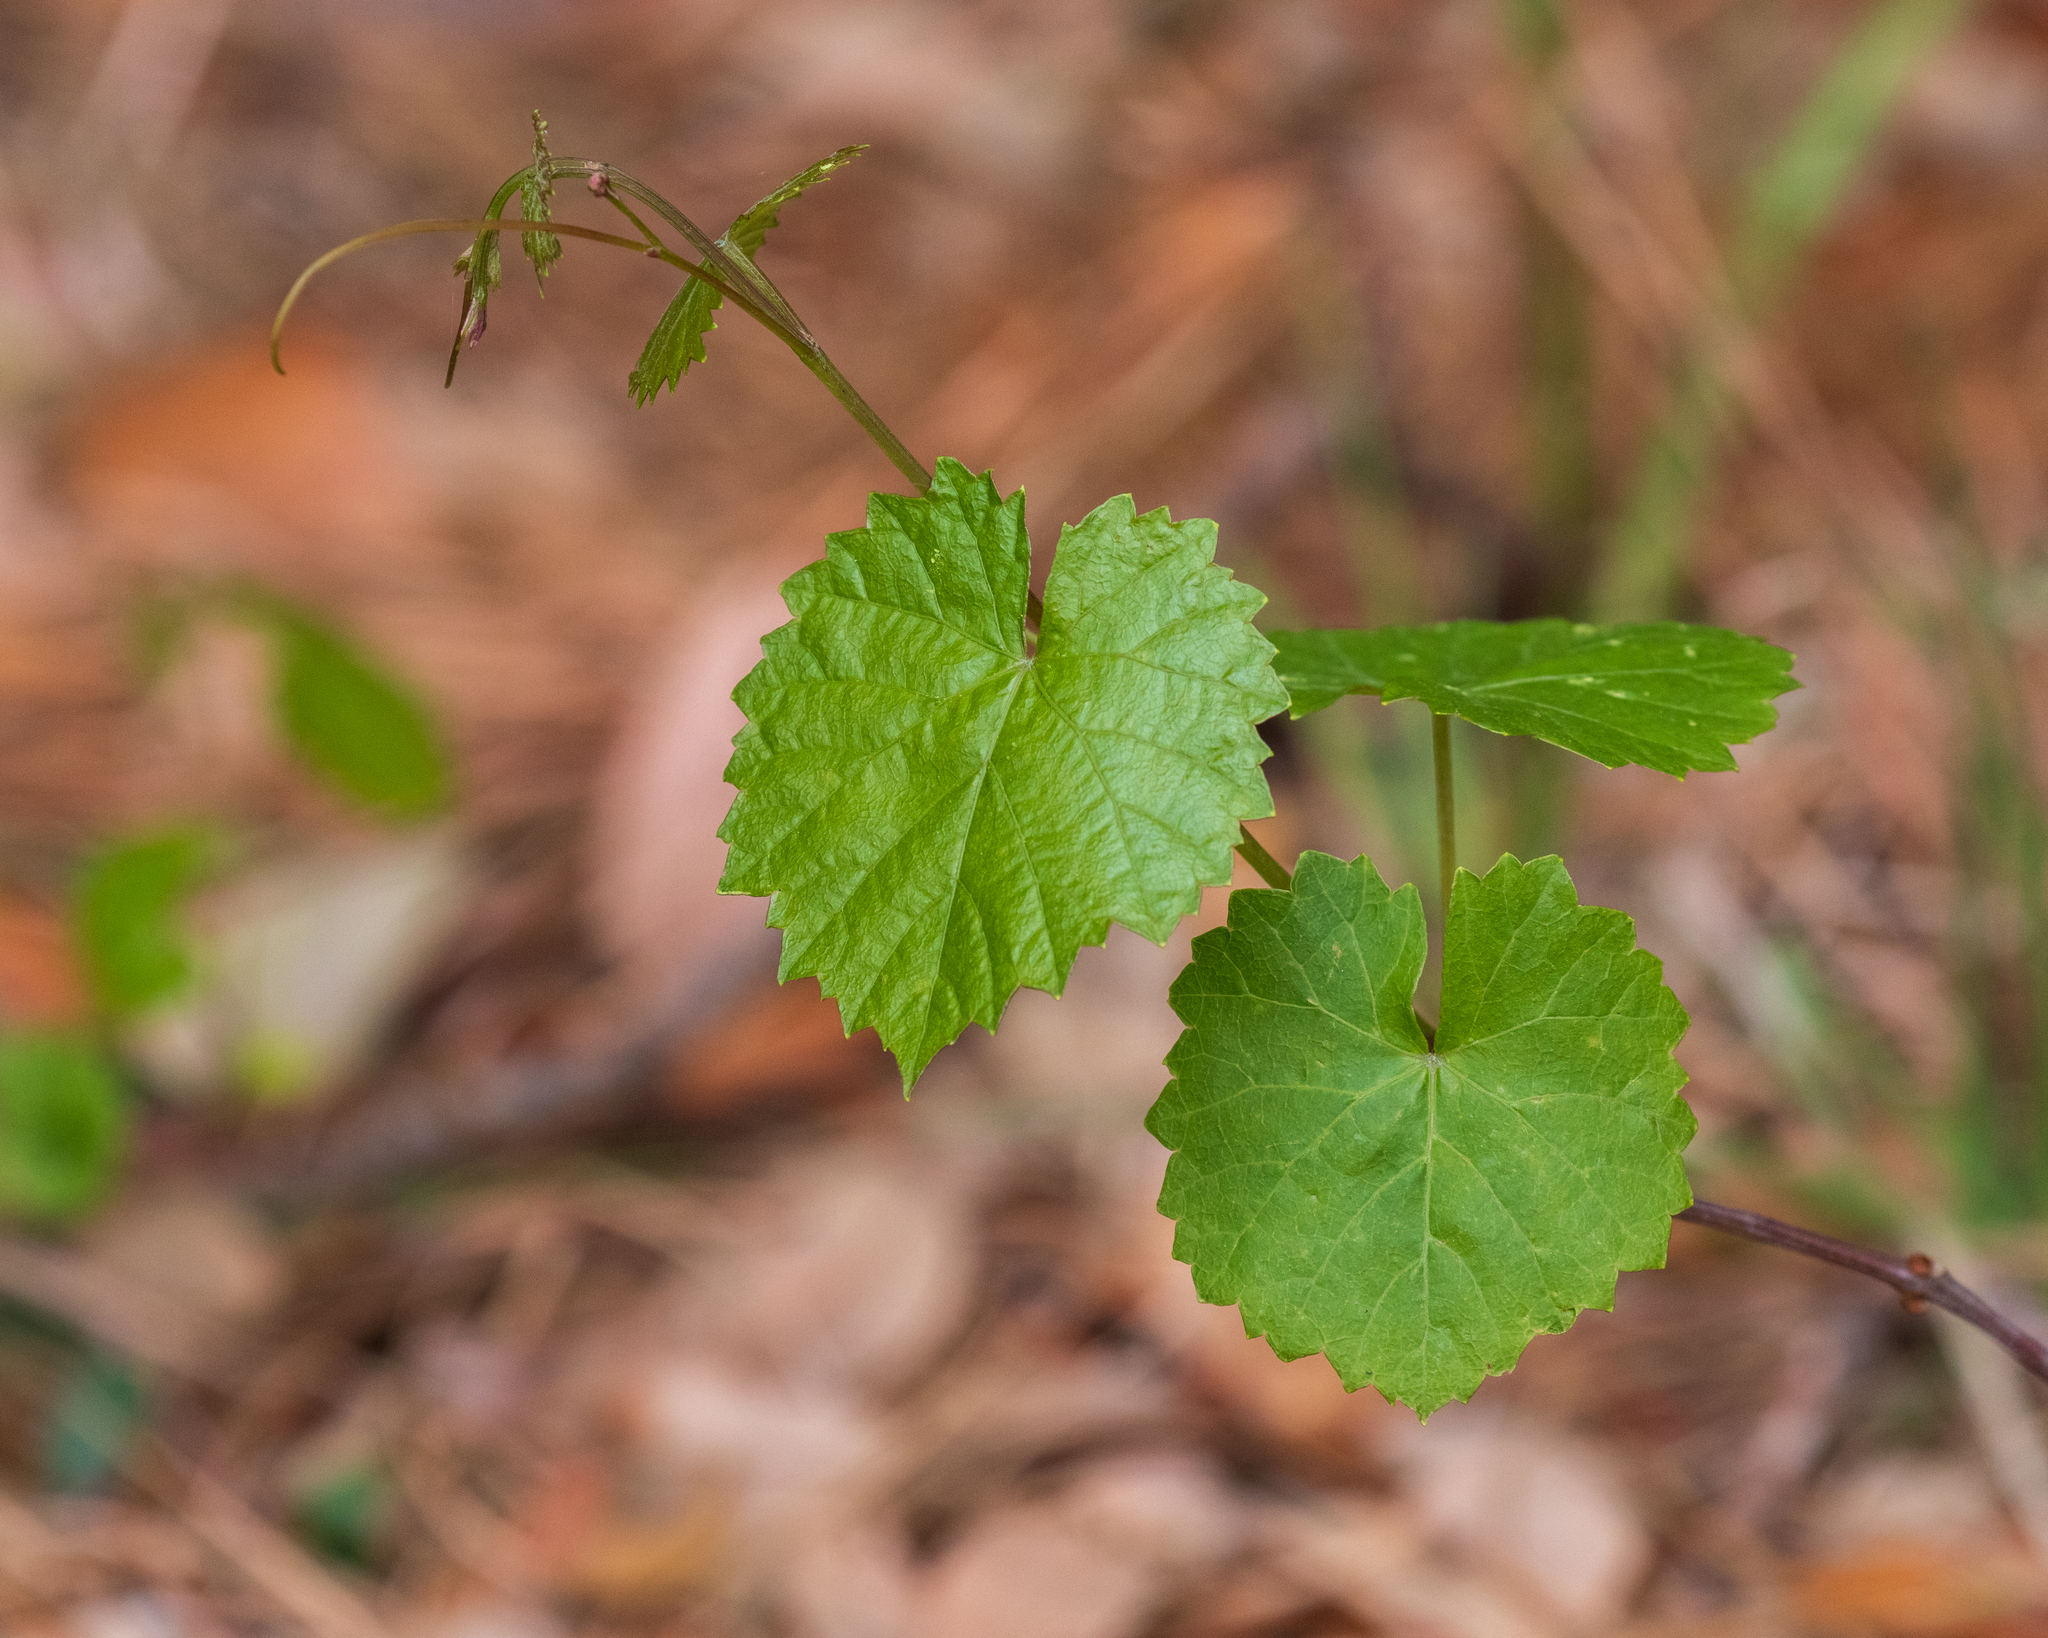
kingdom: Plantae
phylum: Tracheophyta
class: Magnoliopsida
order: Vitales
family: Vitaceae
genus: Vitis
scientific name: Vitis rotundifolia
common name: Muscadine grape
